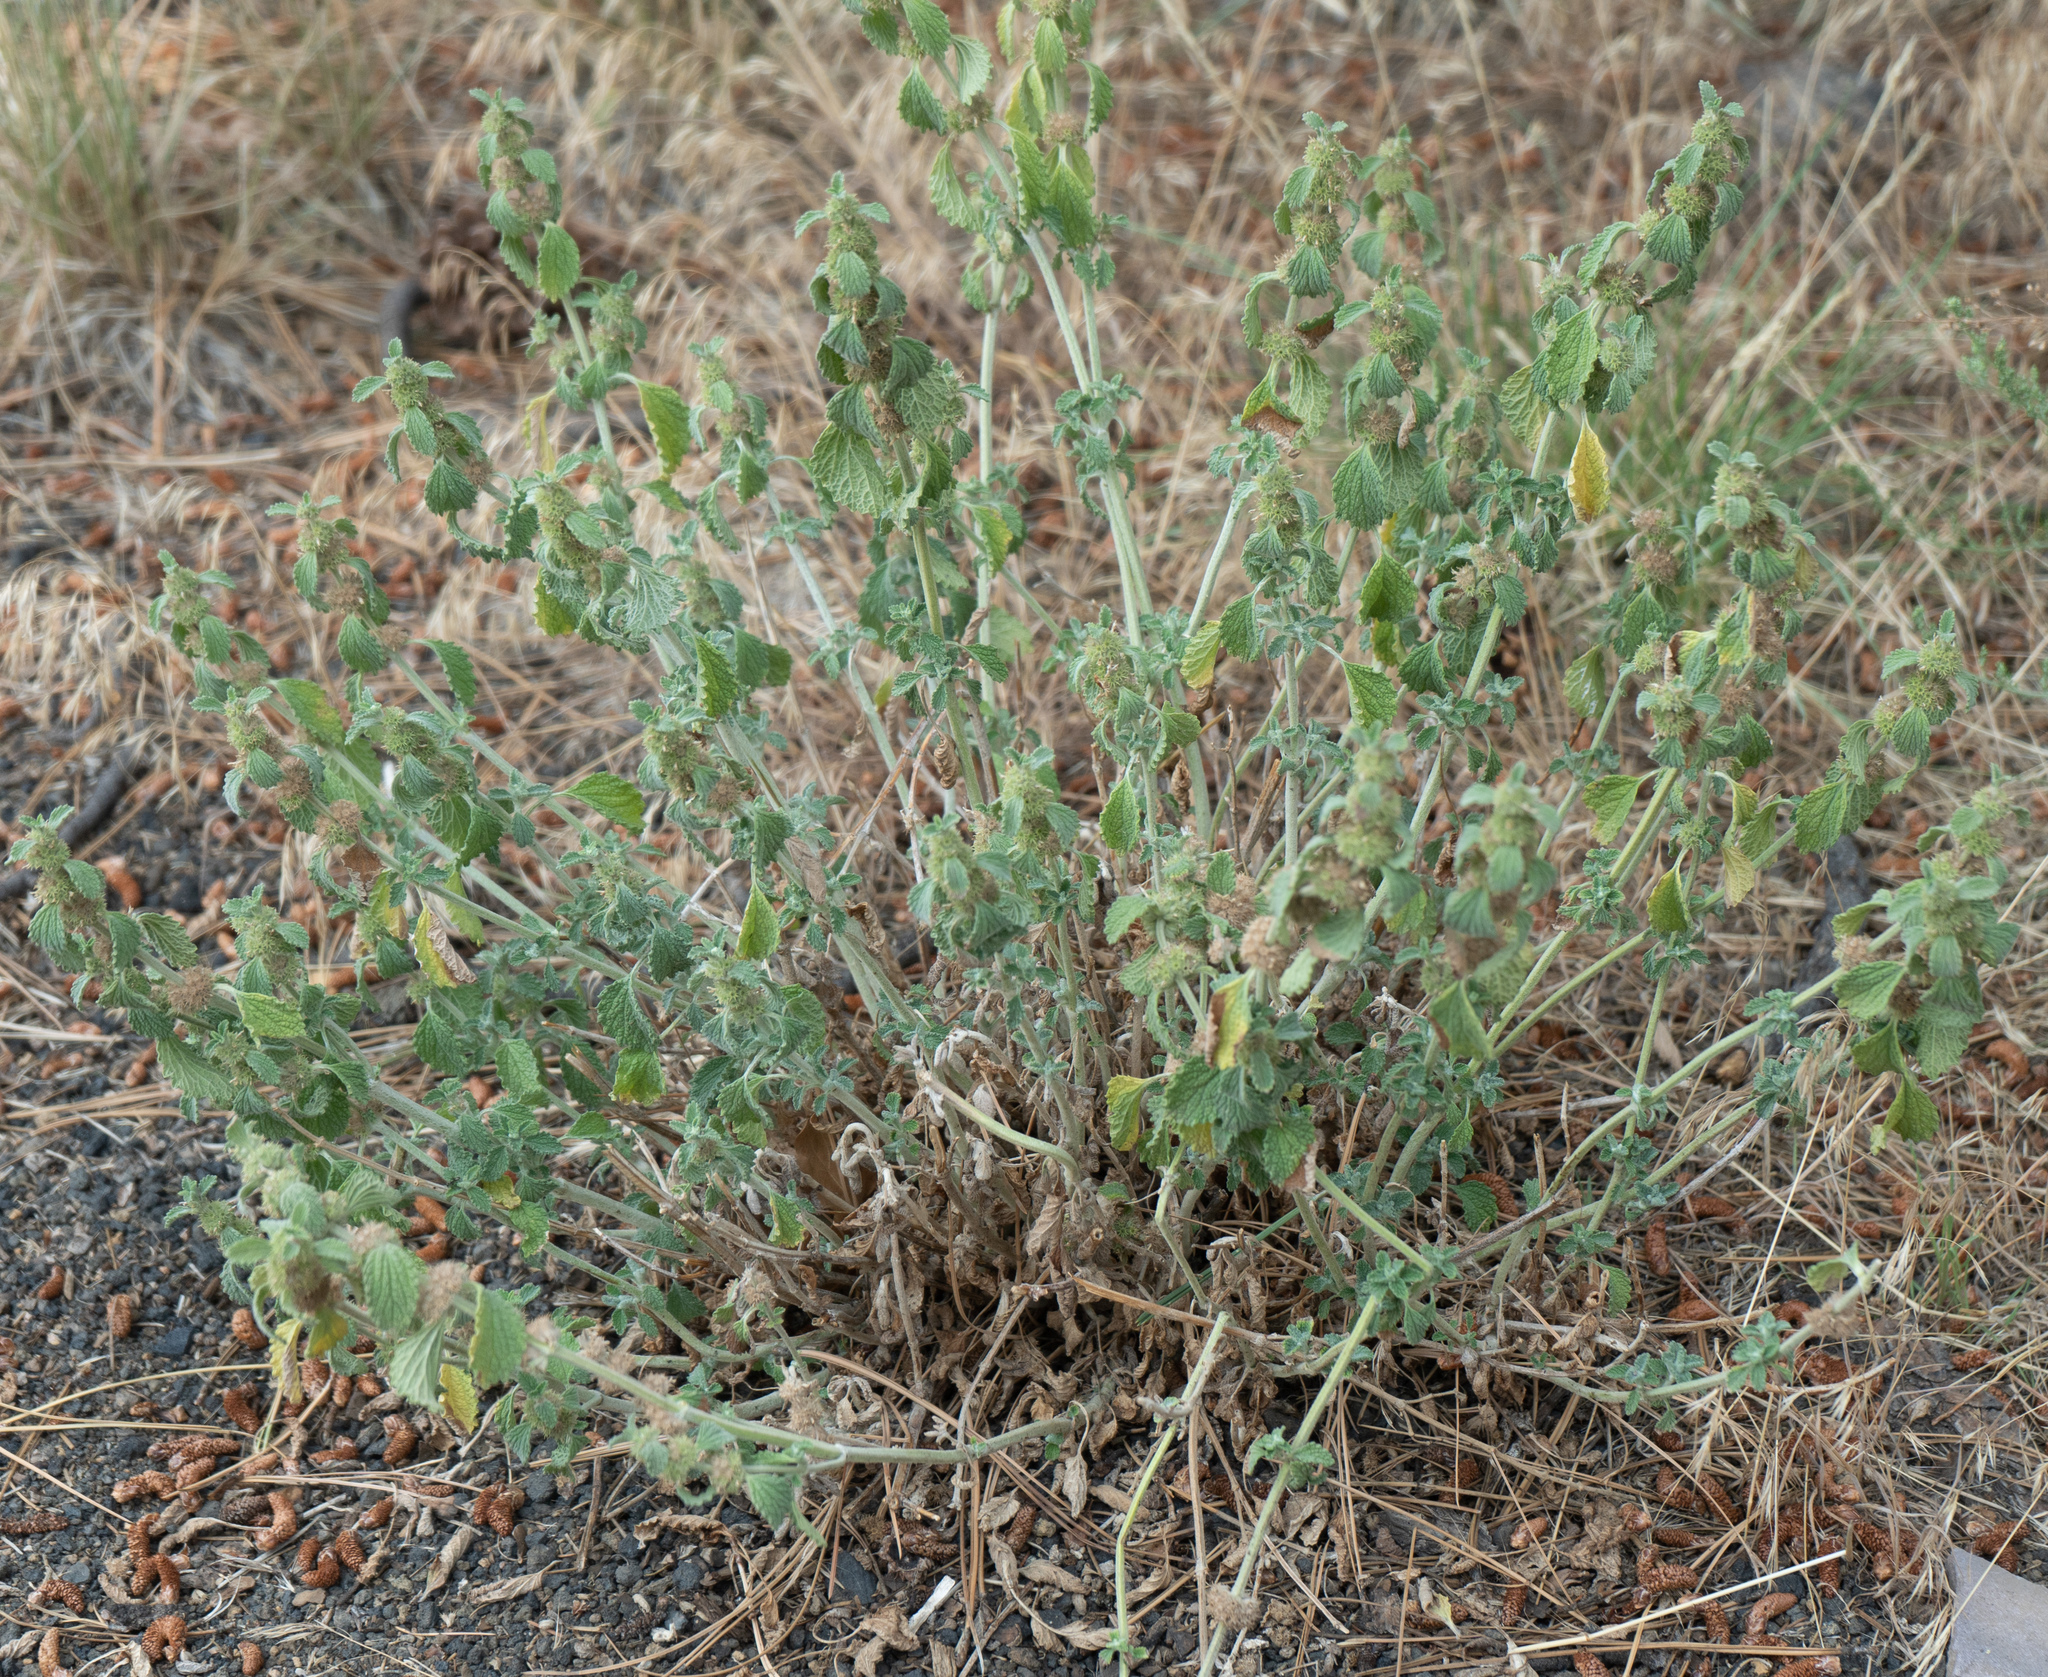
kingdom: Plantae
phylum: Tracheophyta
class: Magnoliopsida
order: Lamiales
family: Lamiaceae
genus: Marrubium
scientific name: Marrubium vulgare
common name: Horehound
